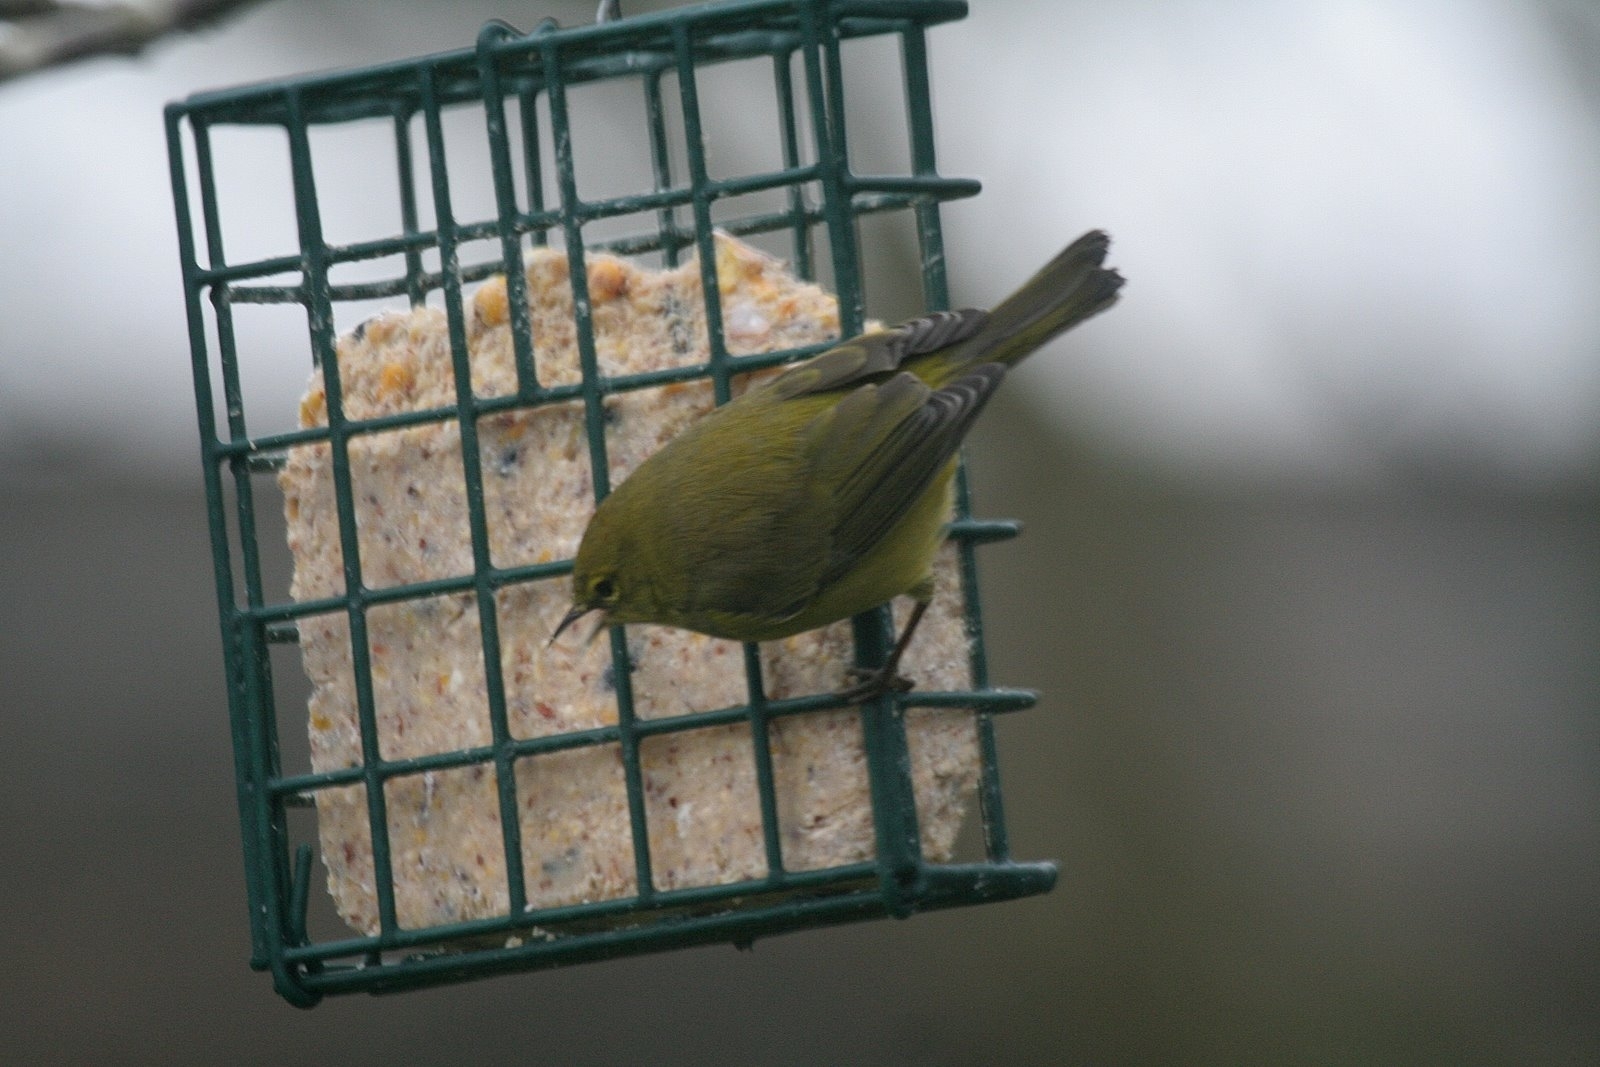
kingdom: Animalia
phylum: Chordata
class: Aves
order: Passeriformes
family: Parulidae
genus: Leiothlypis
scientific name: Leiothlypis celata
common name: Orange-crowned warbler
